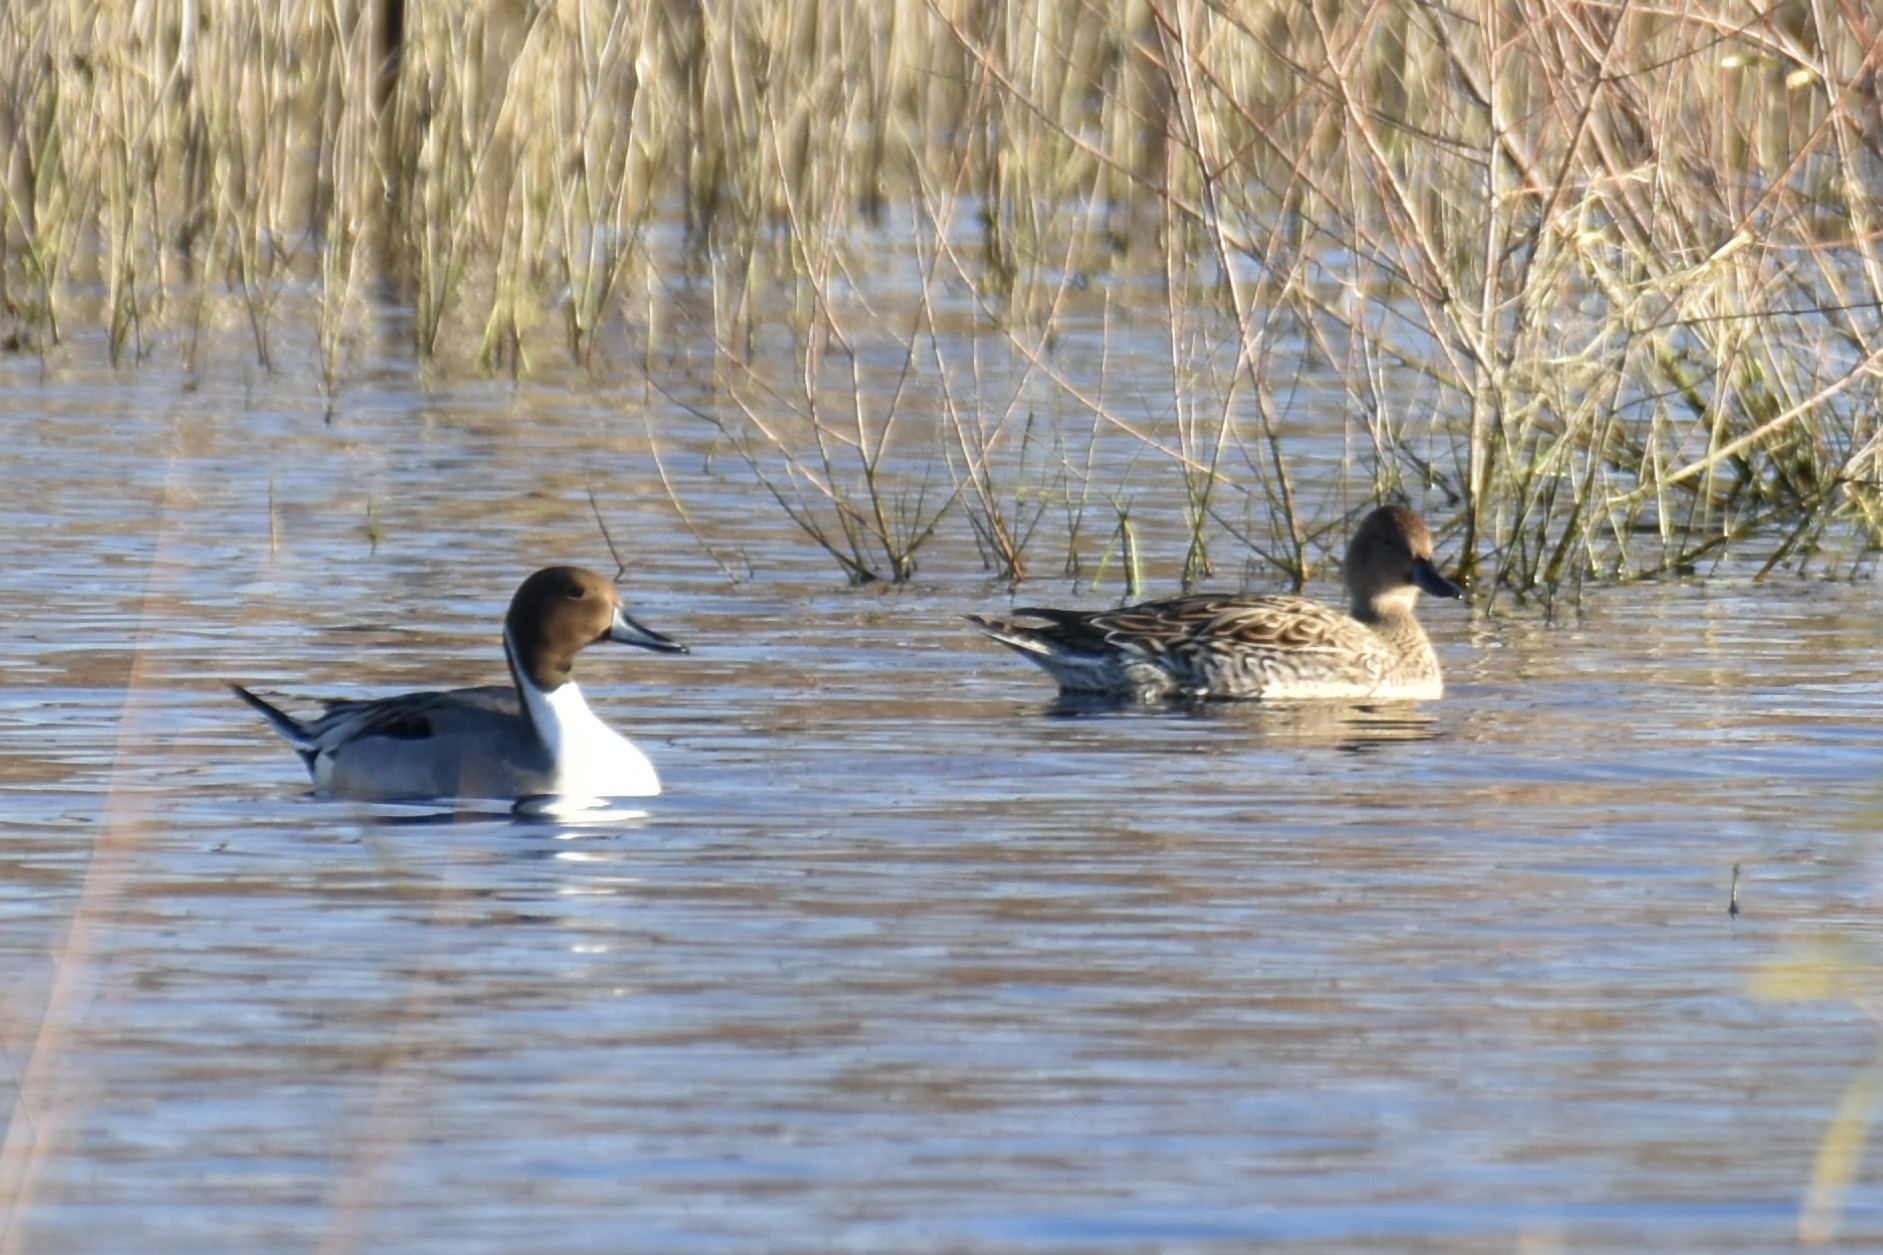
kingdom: Animalia
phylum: Chordata
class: Aves
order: Anseriformes
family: Anatidae
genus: Anas
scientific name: Anas acuta
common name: Northern pintail
